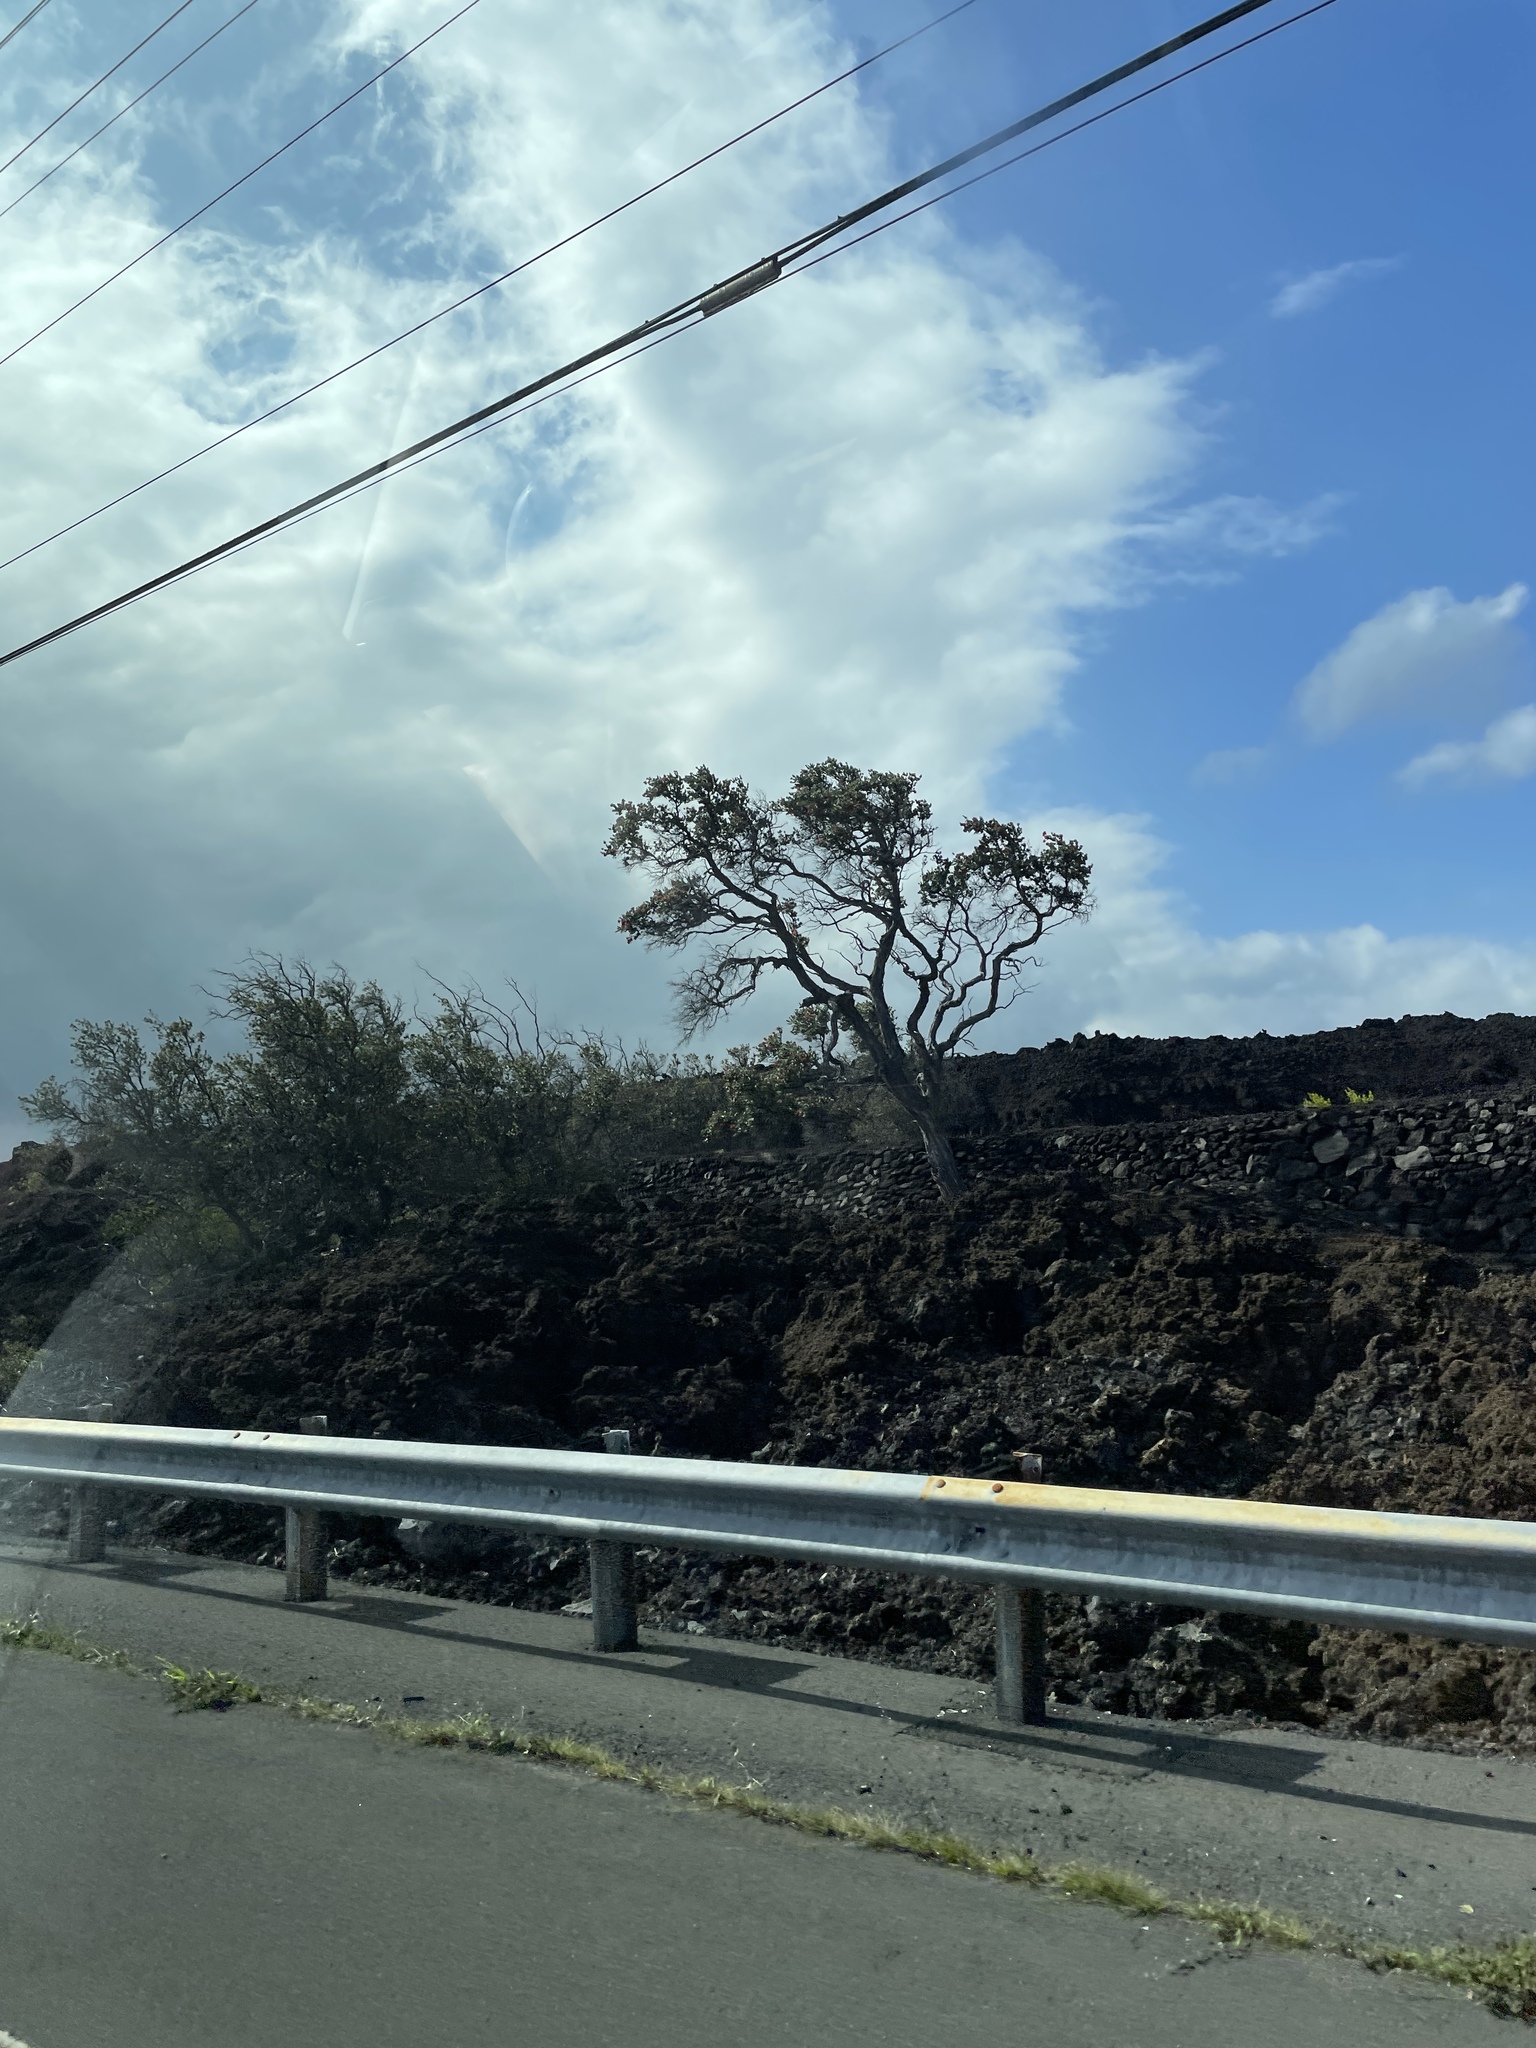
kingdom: Plantae
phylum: Tracheophyta
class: Magnoliopsida
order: Myrtales
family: Myrtaceae
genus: Metrosideros
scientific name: Metrosideros polymorpha
